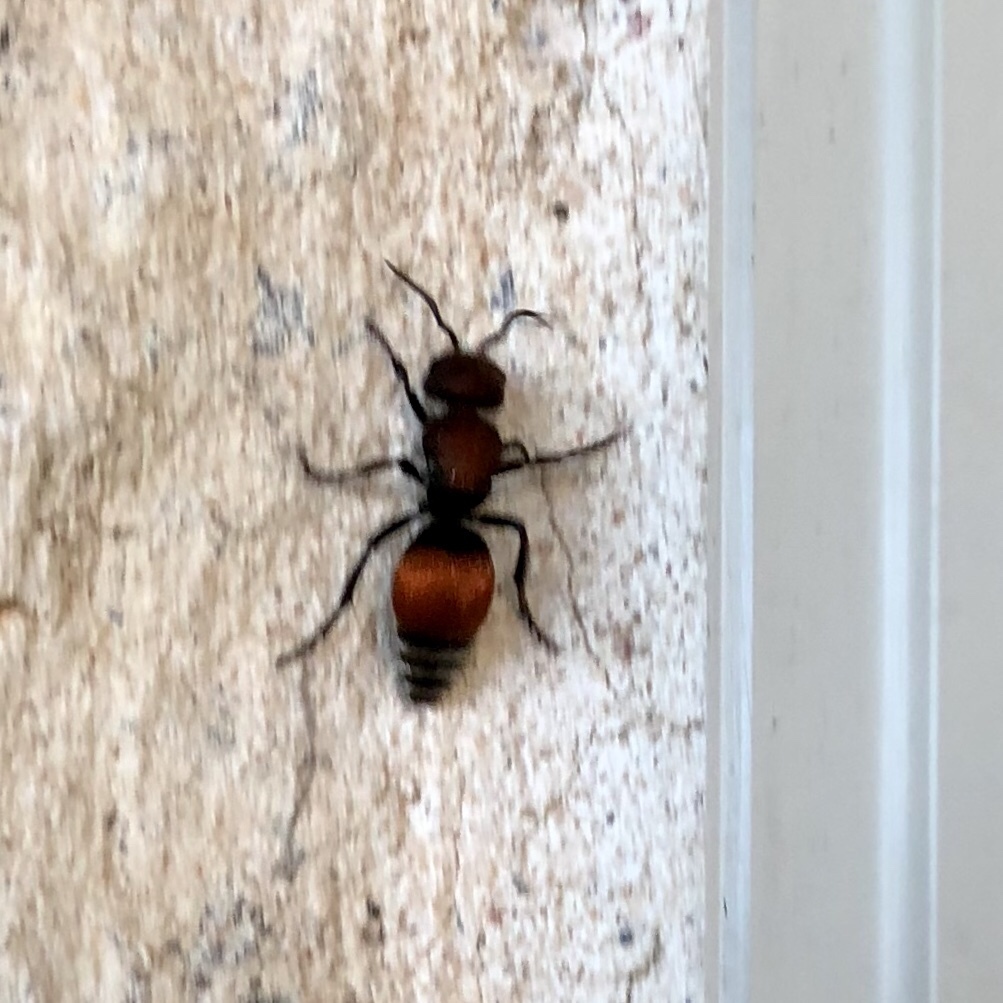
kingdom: Animalia
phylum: Arthropoda
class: Insecta
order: Hymenoptera
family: Mutillidae
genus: Pseudomethoca
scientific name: Pseudomethoca
